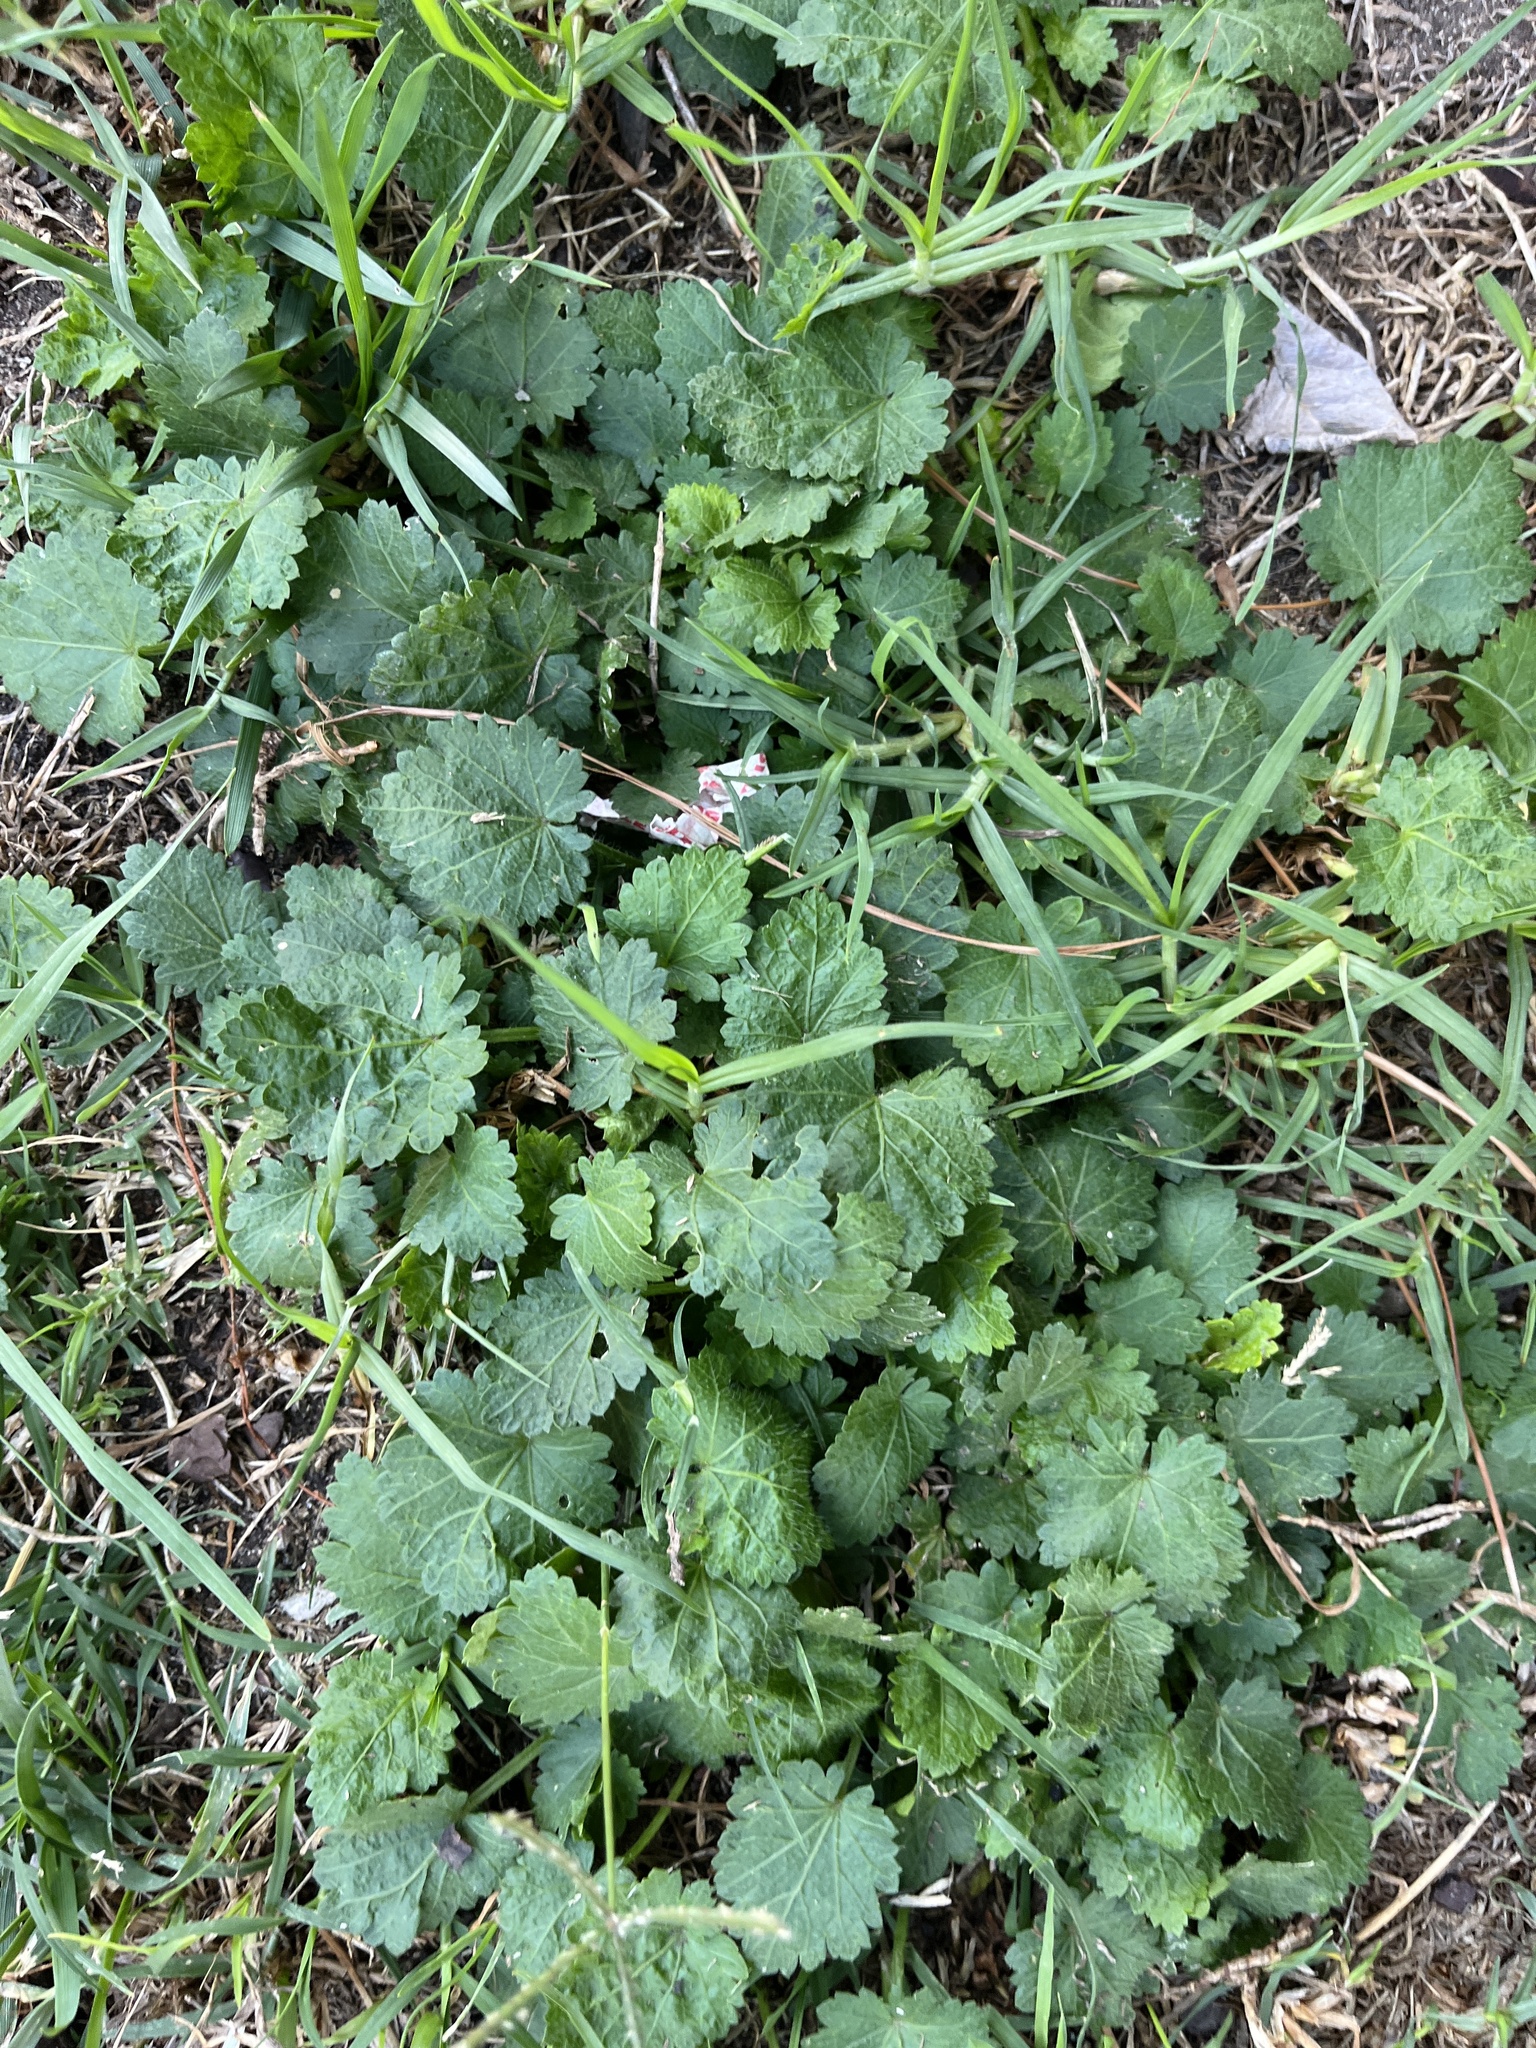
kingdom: Plantae
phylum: Tracheophyta
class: Magnoliopsida
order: Malvales
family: Malvaceae
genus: Modiola
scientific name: Modiola caroliniana
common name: Carolina bristlemallow
